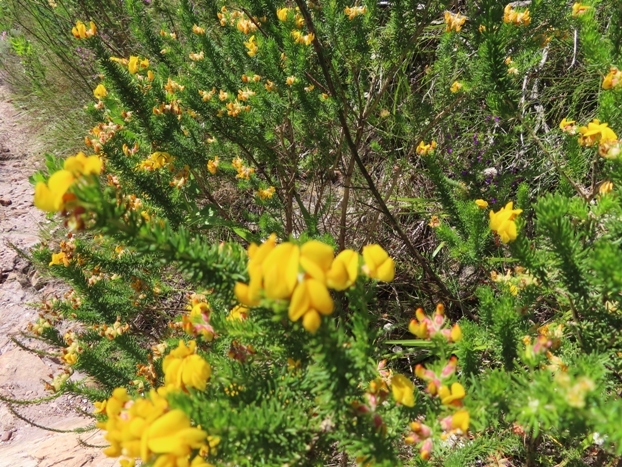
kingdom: Plantae
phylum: Tracheophyta
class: Magnoliopsida
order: Fabales
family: Fabaceae
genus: Aspalathus
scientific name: Aspalathus excelsa
